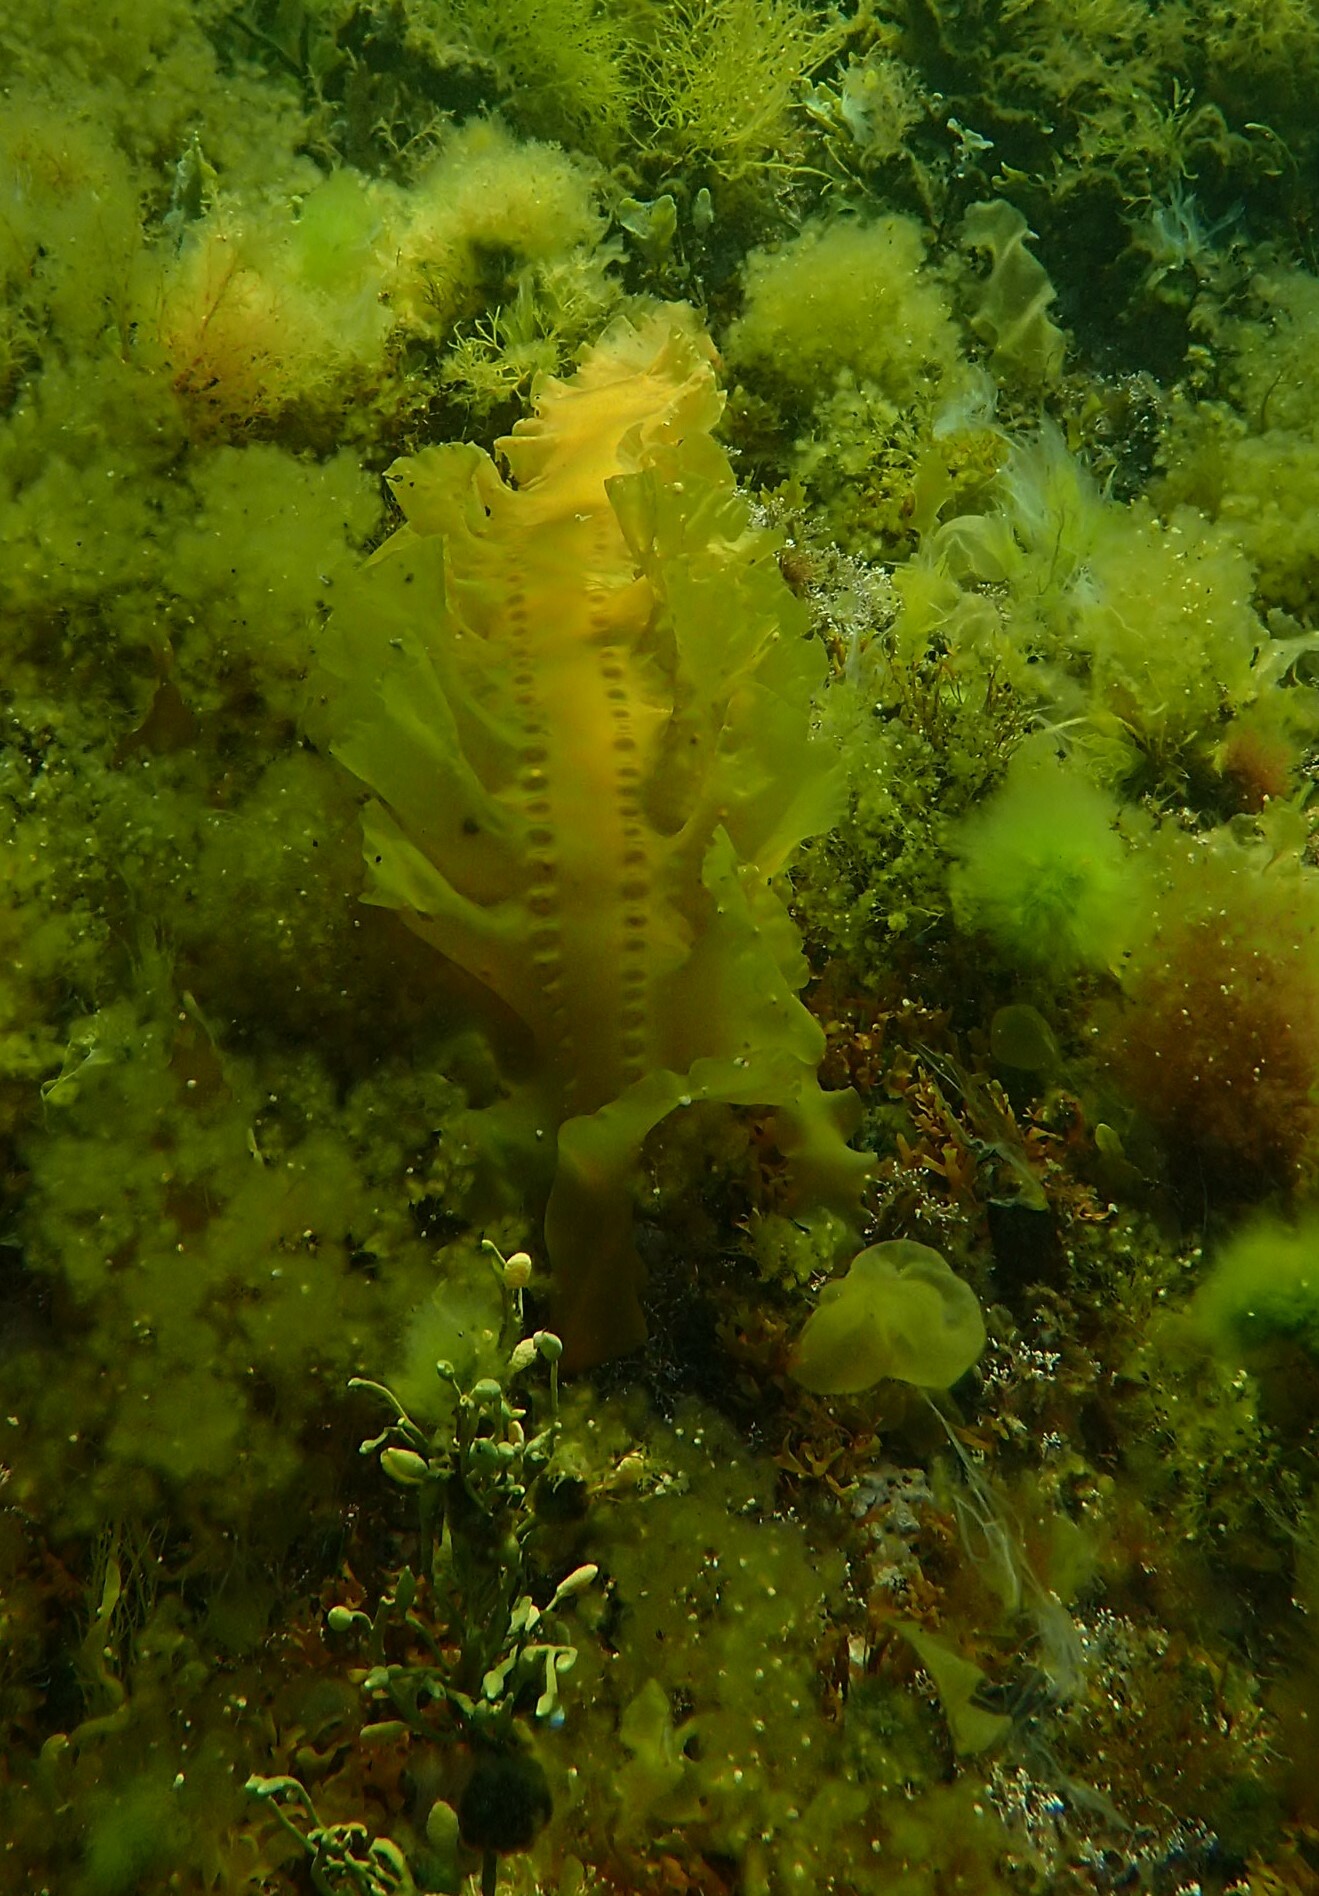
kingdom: Chromista
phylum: Ochrophyta
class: Phaeophyceae
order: Laminariales
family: Laminariaceae
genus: Saccharina
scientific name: Saccharina latissima
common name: Poor man's weather glass
